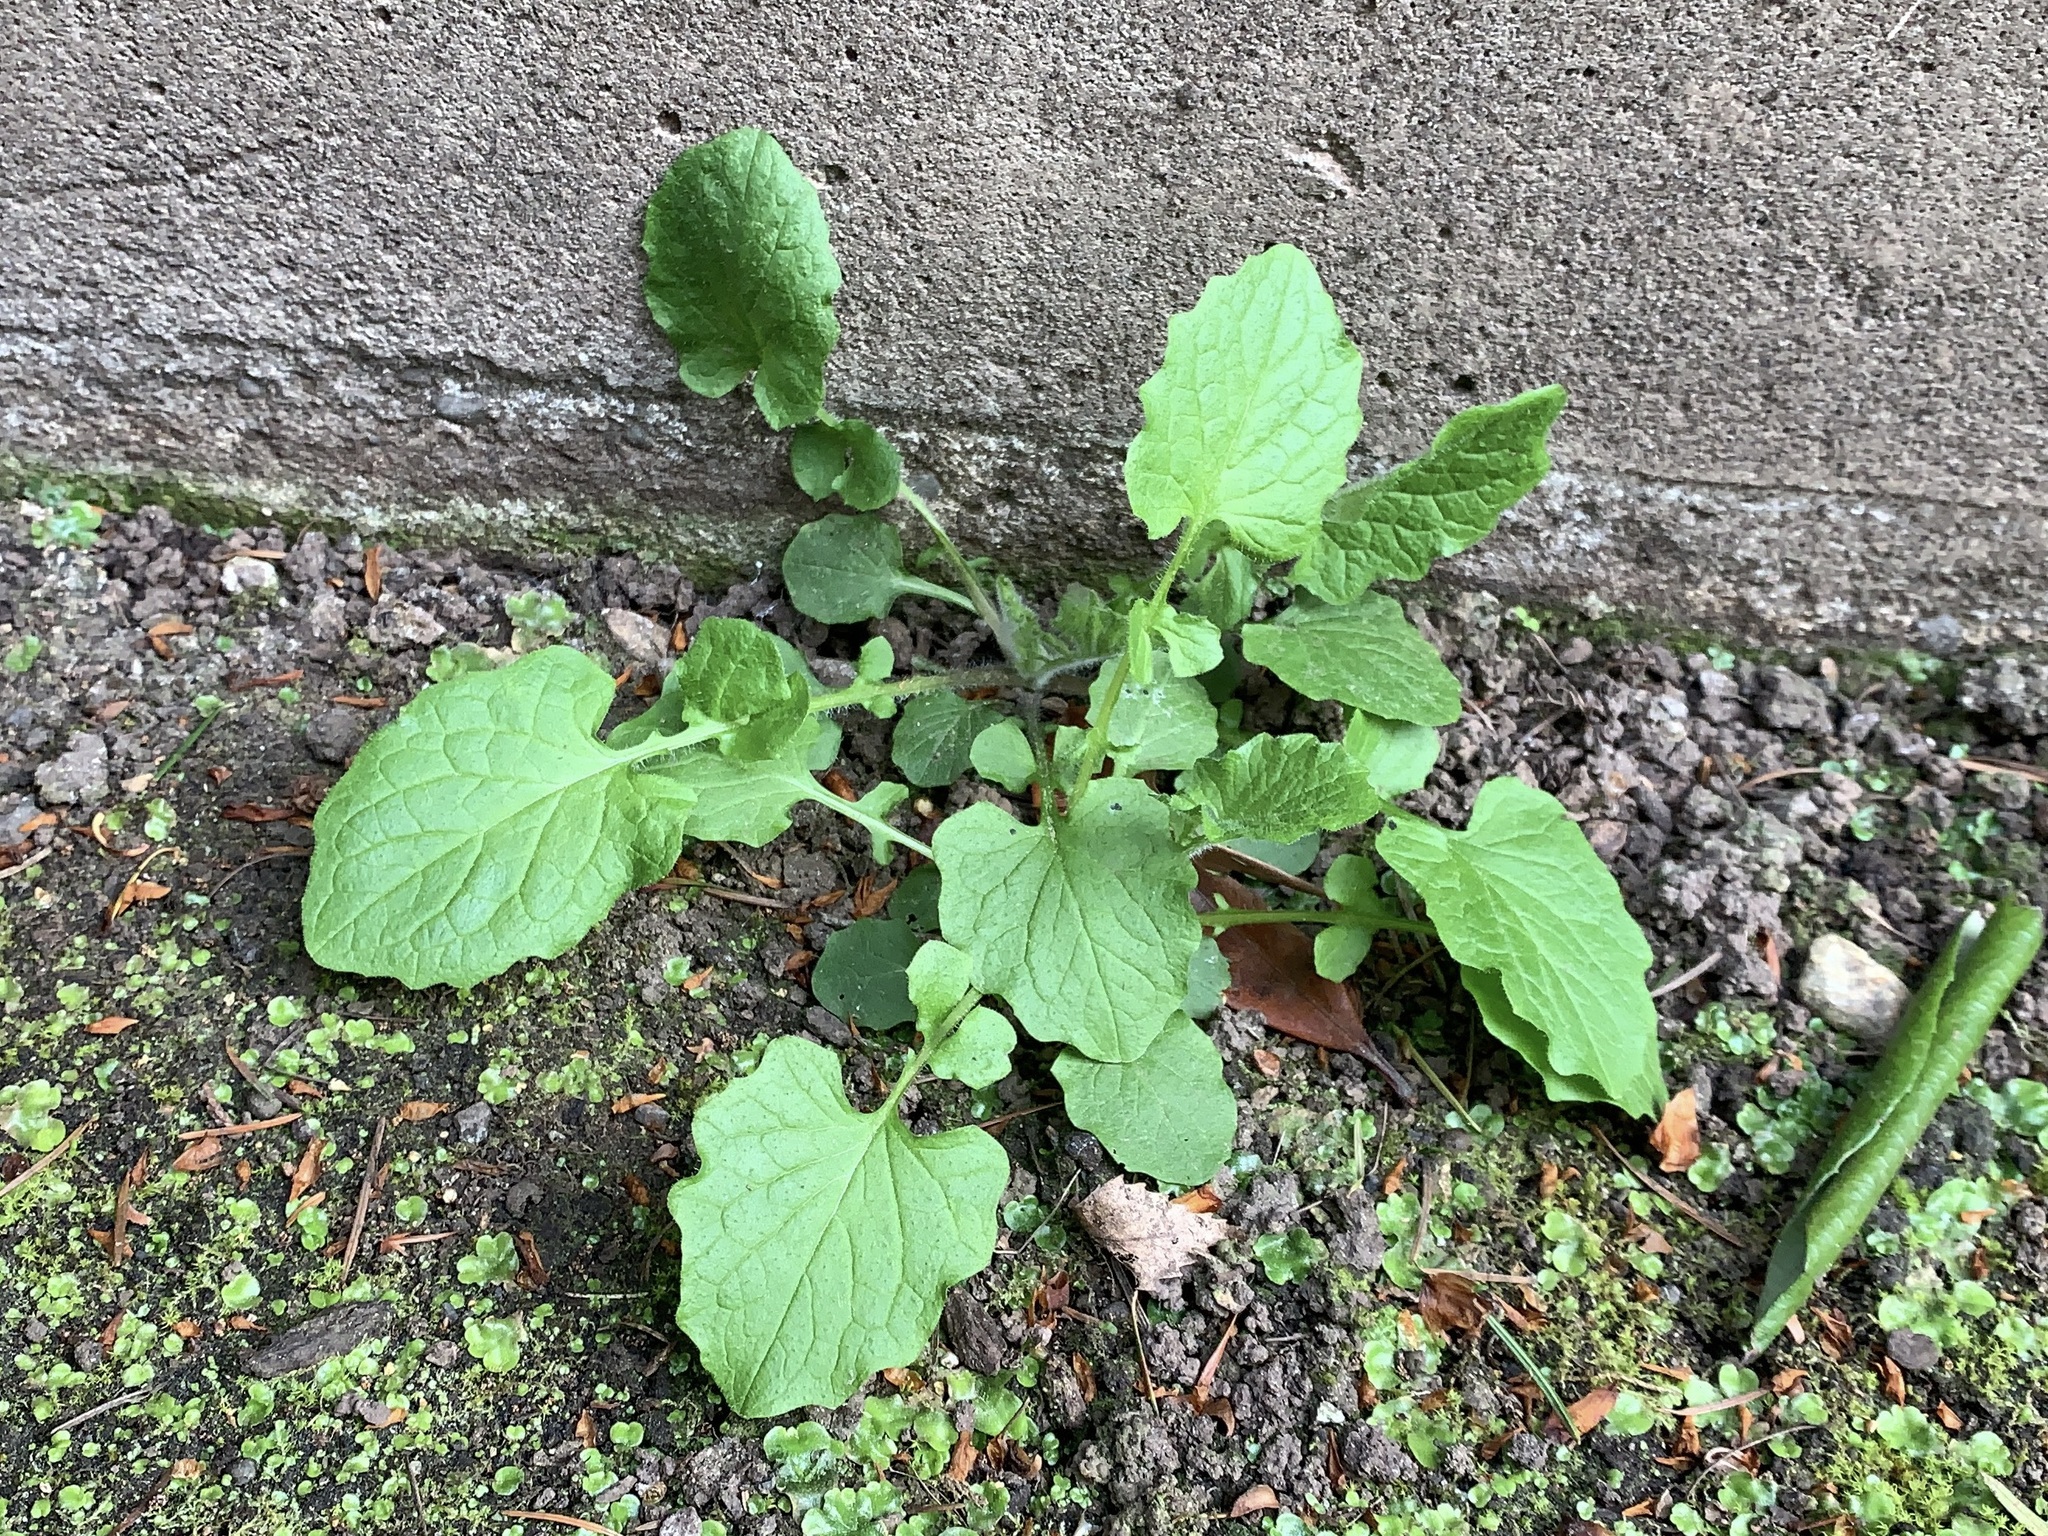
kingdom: Plantae
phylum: Tracheophyta
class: Magnoliopsida
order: Asterales
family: Asteraceae
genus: Lapsana
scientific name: Lapsana communis
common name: Nipplewort
